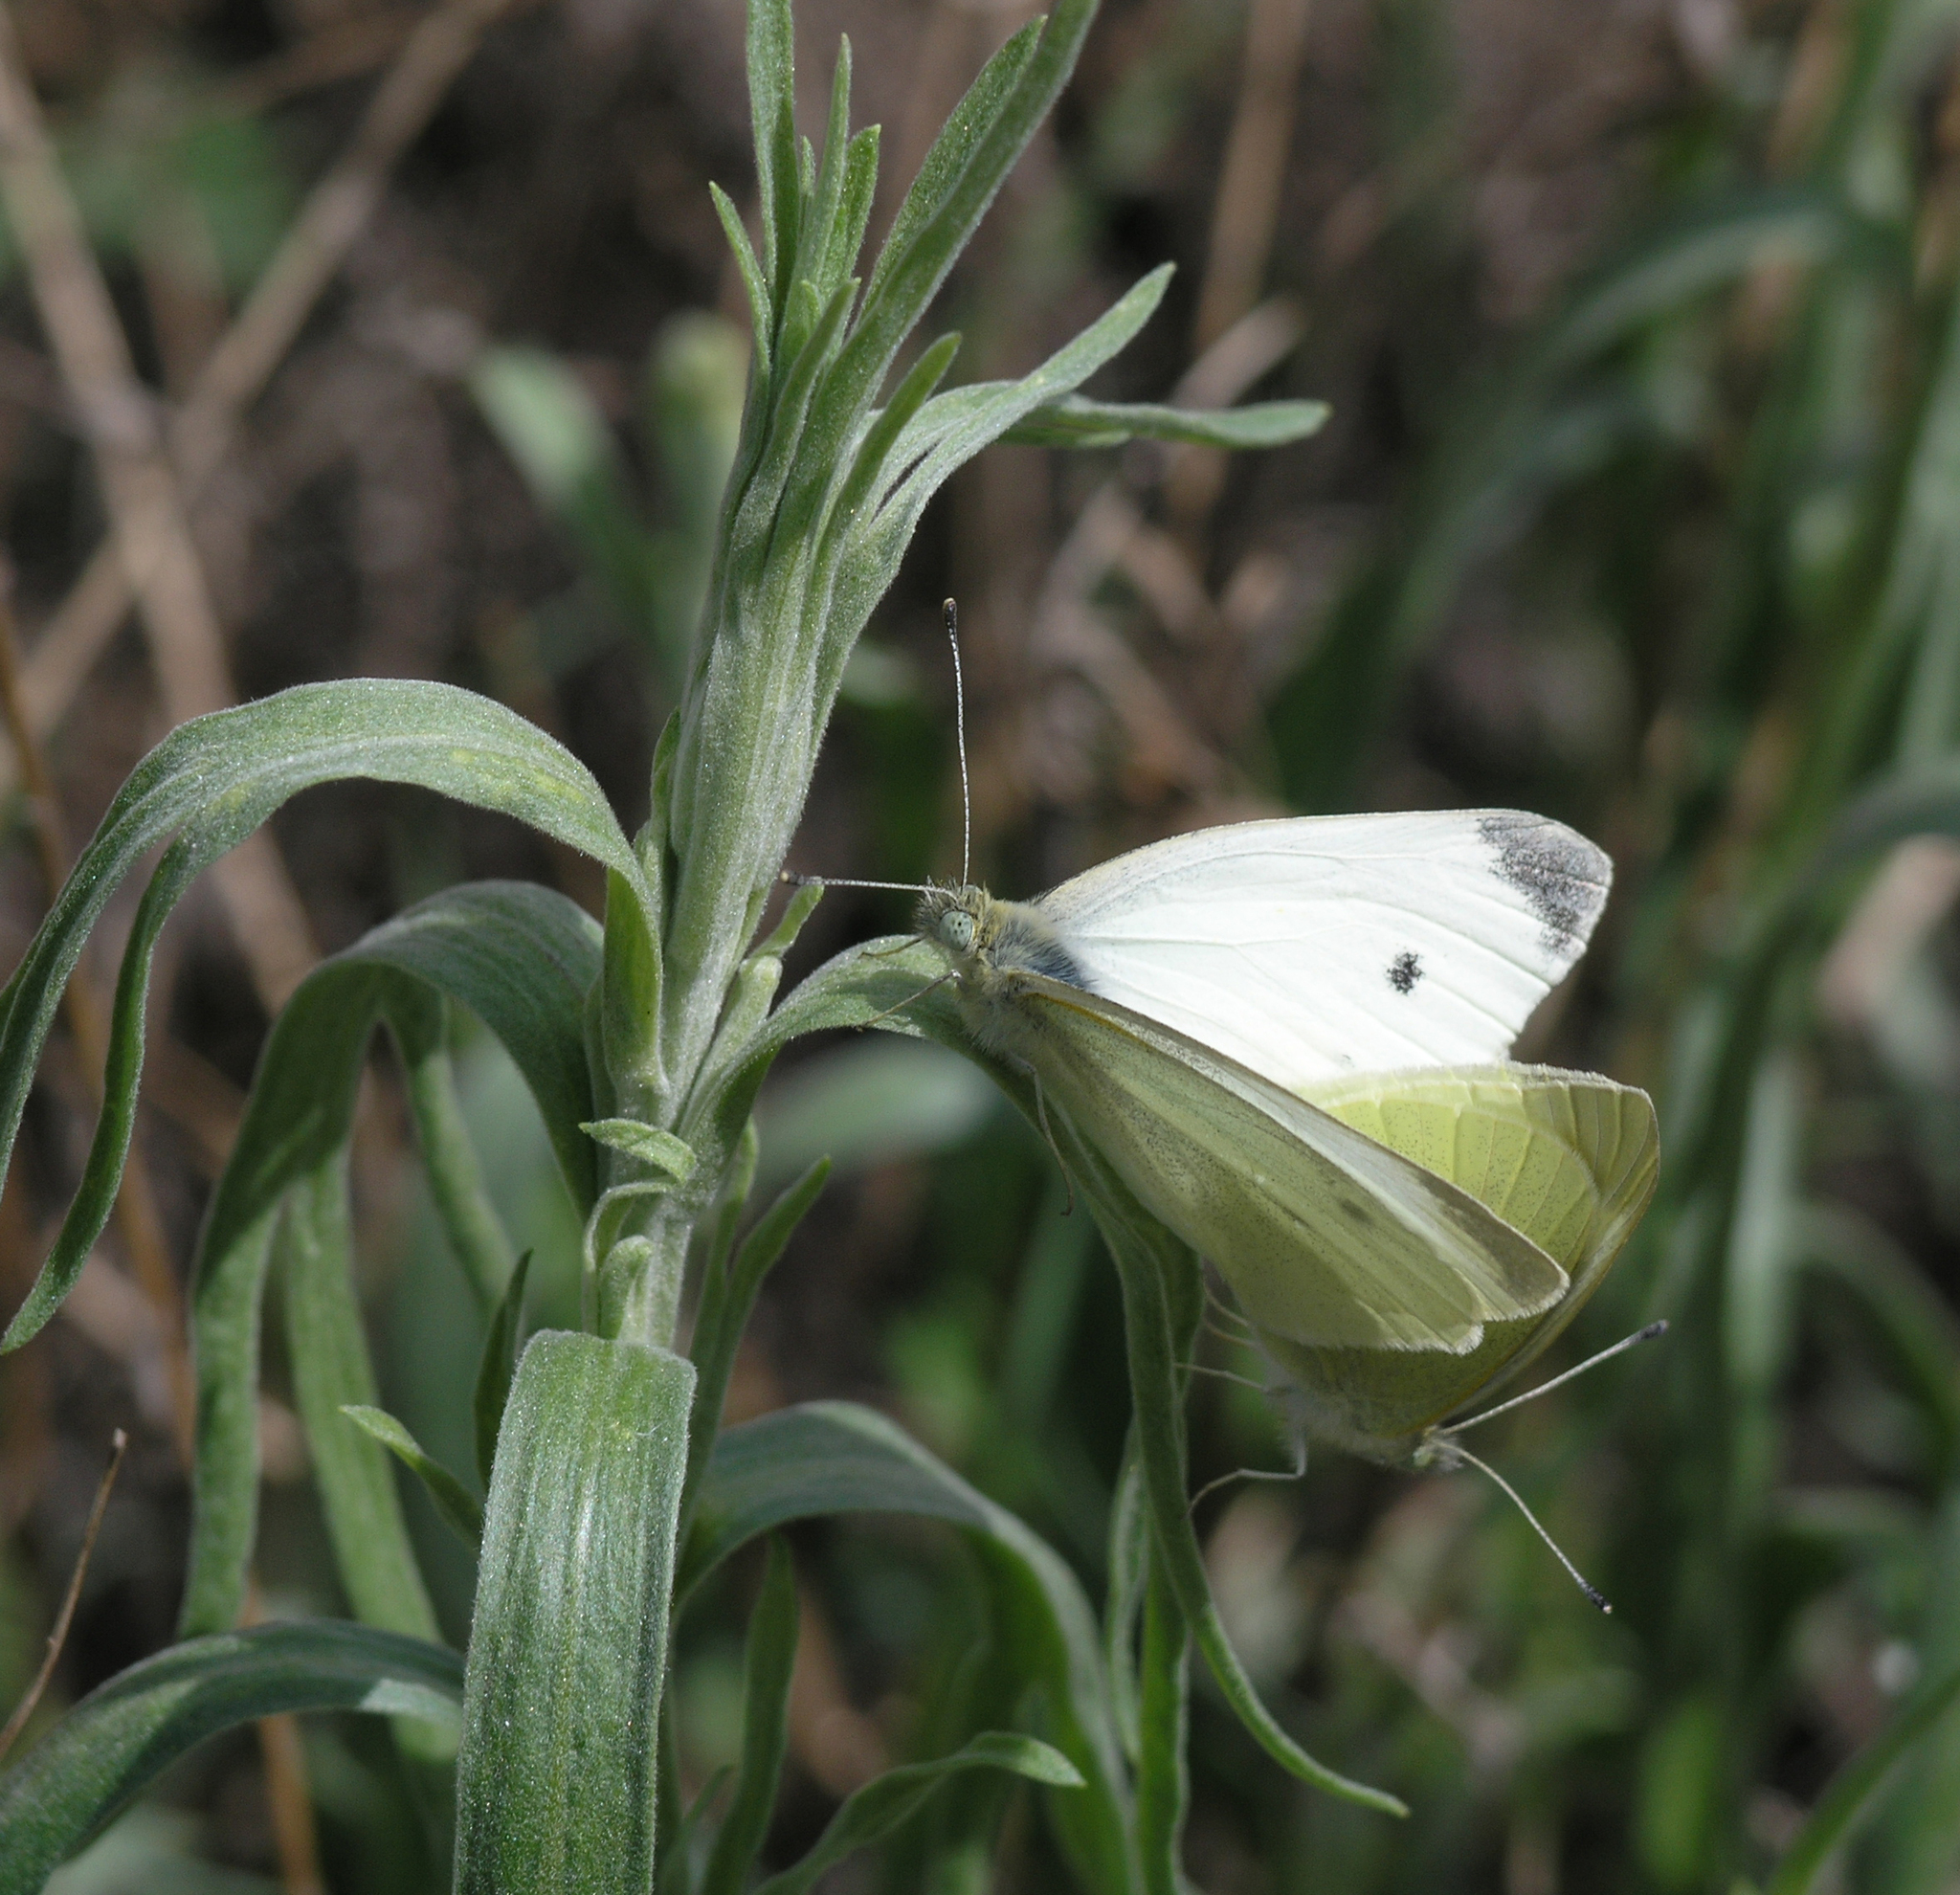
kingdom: Animalia
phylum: Arthropoda
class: Insecta
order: Lepidoptera
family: Pieridae
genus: Pieris
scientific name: Pieris rapae
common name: Small white
